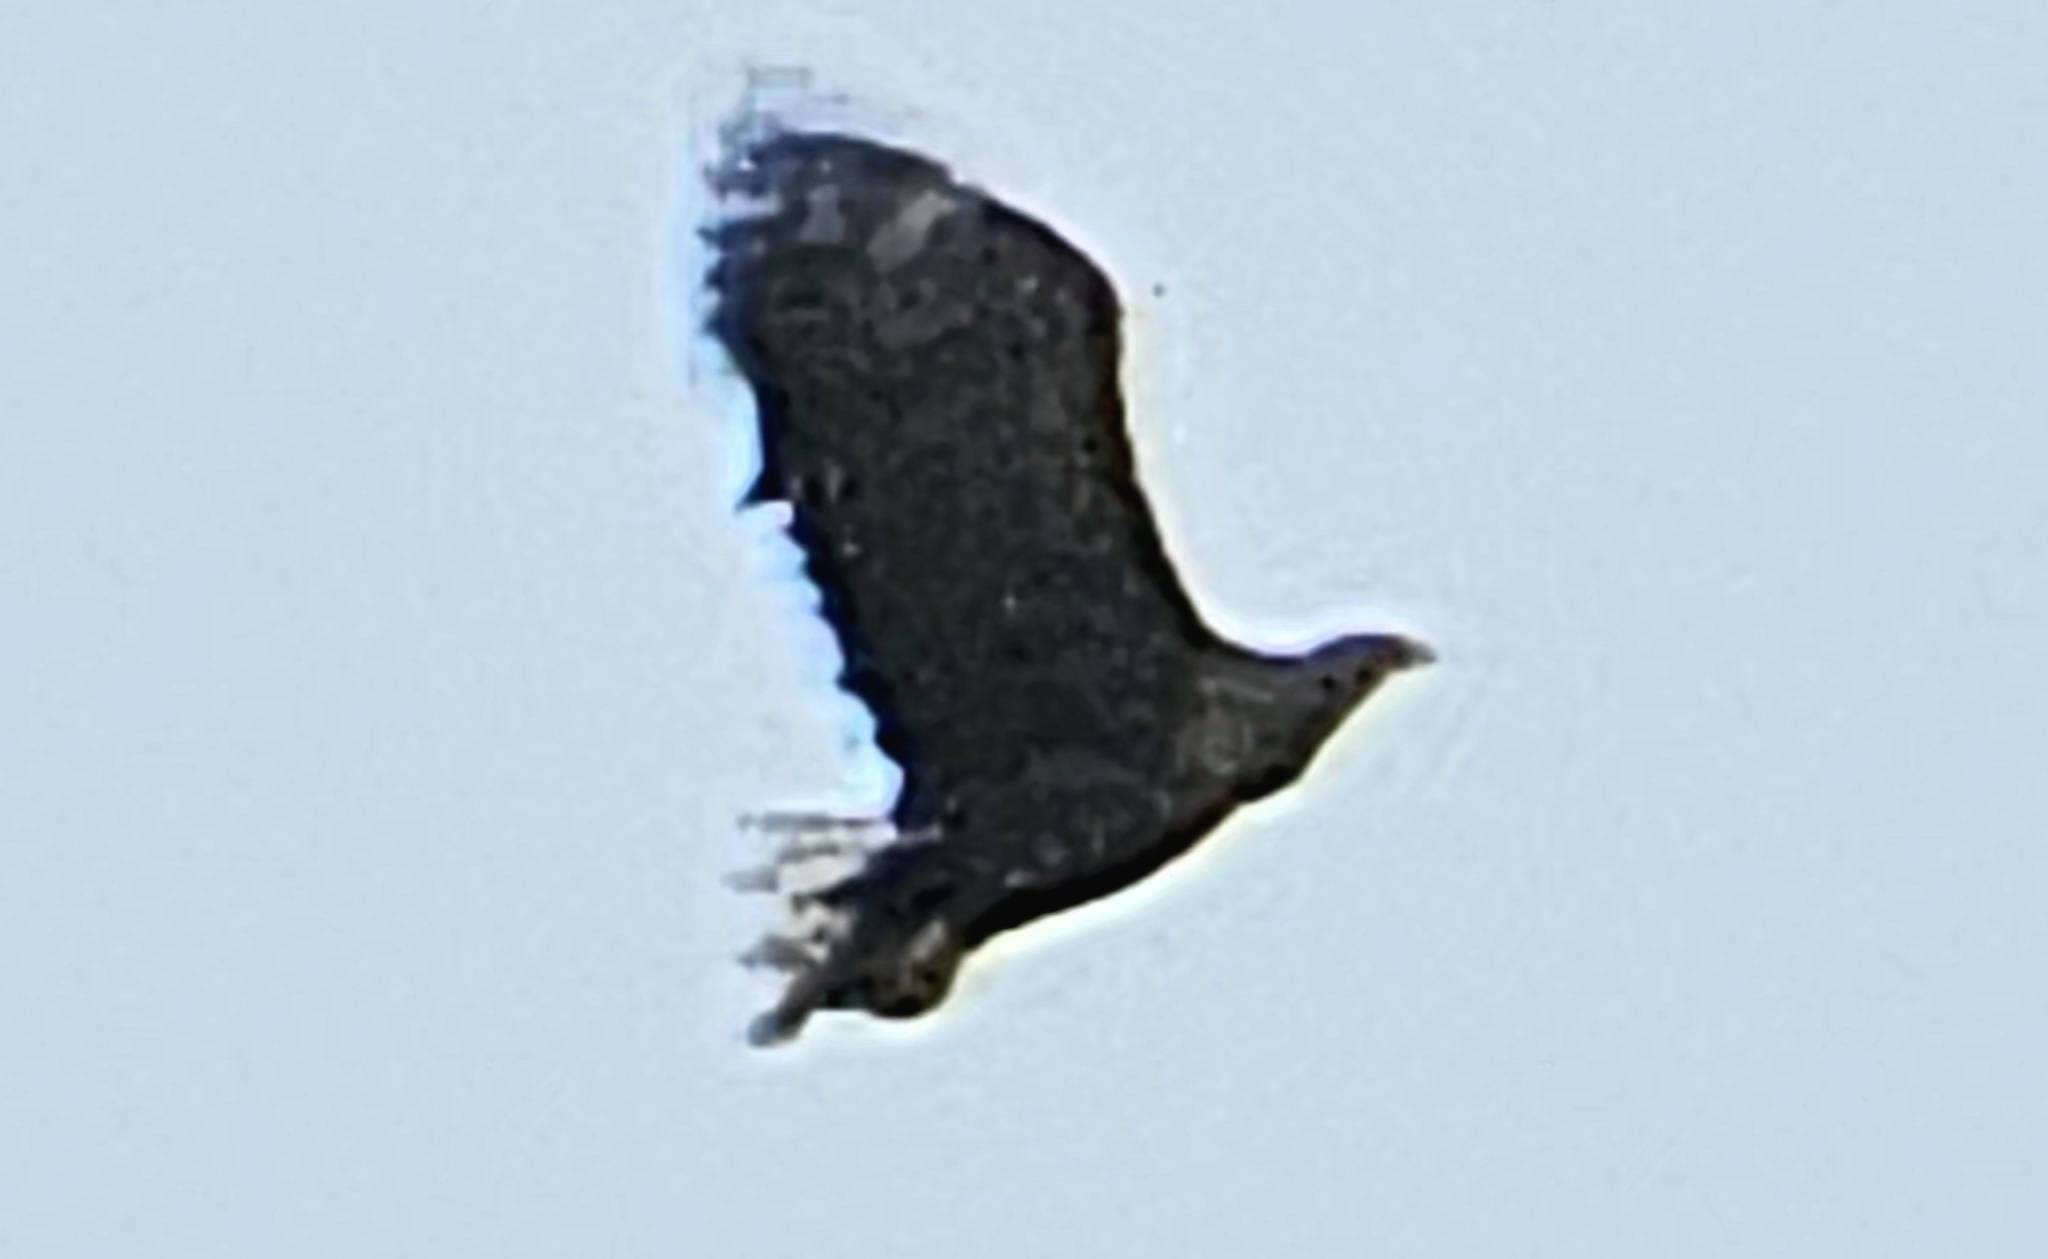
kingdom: Animalia
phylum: Chordata
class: Aves
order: Accipitriformes
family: Accipitridae
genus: Haliaeetus
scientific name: Haliaeetus albicilla
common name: White-tailed eagle
